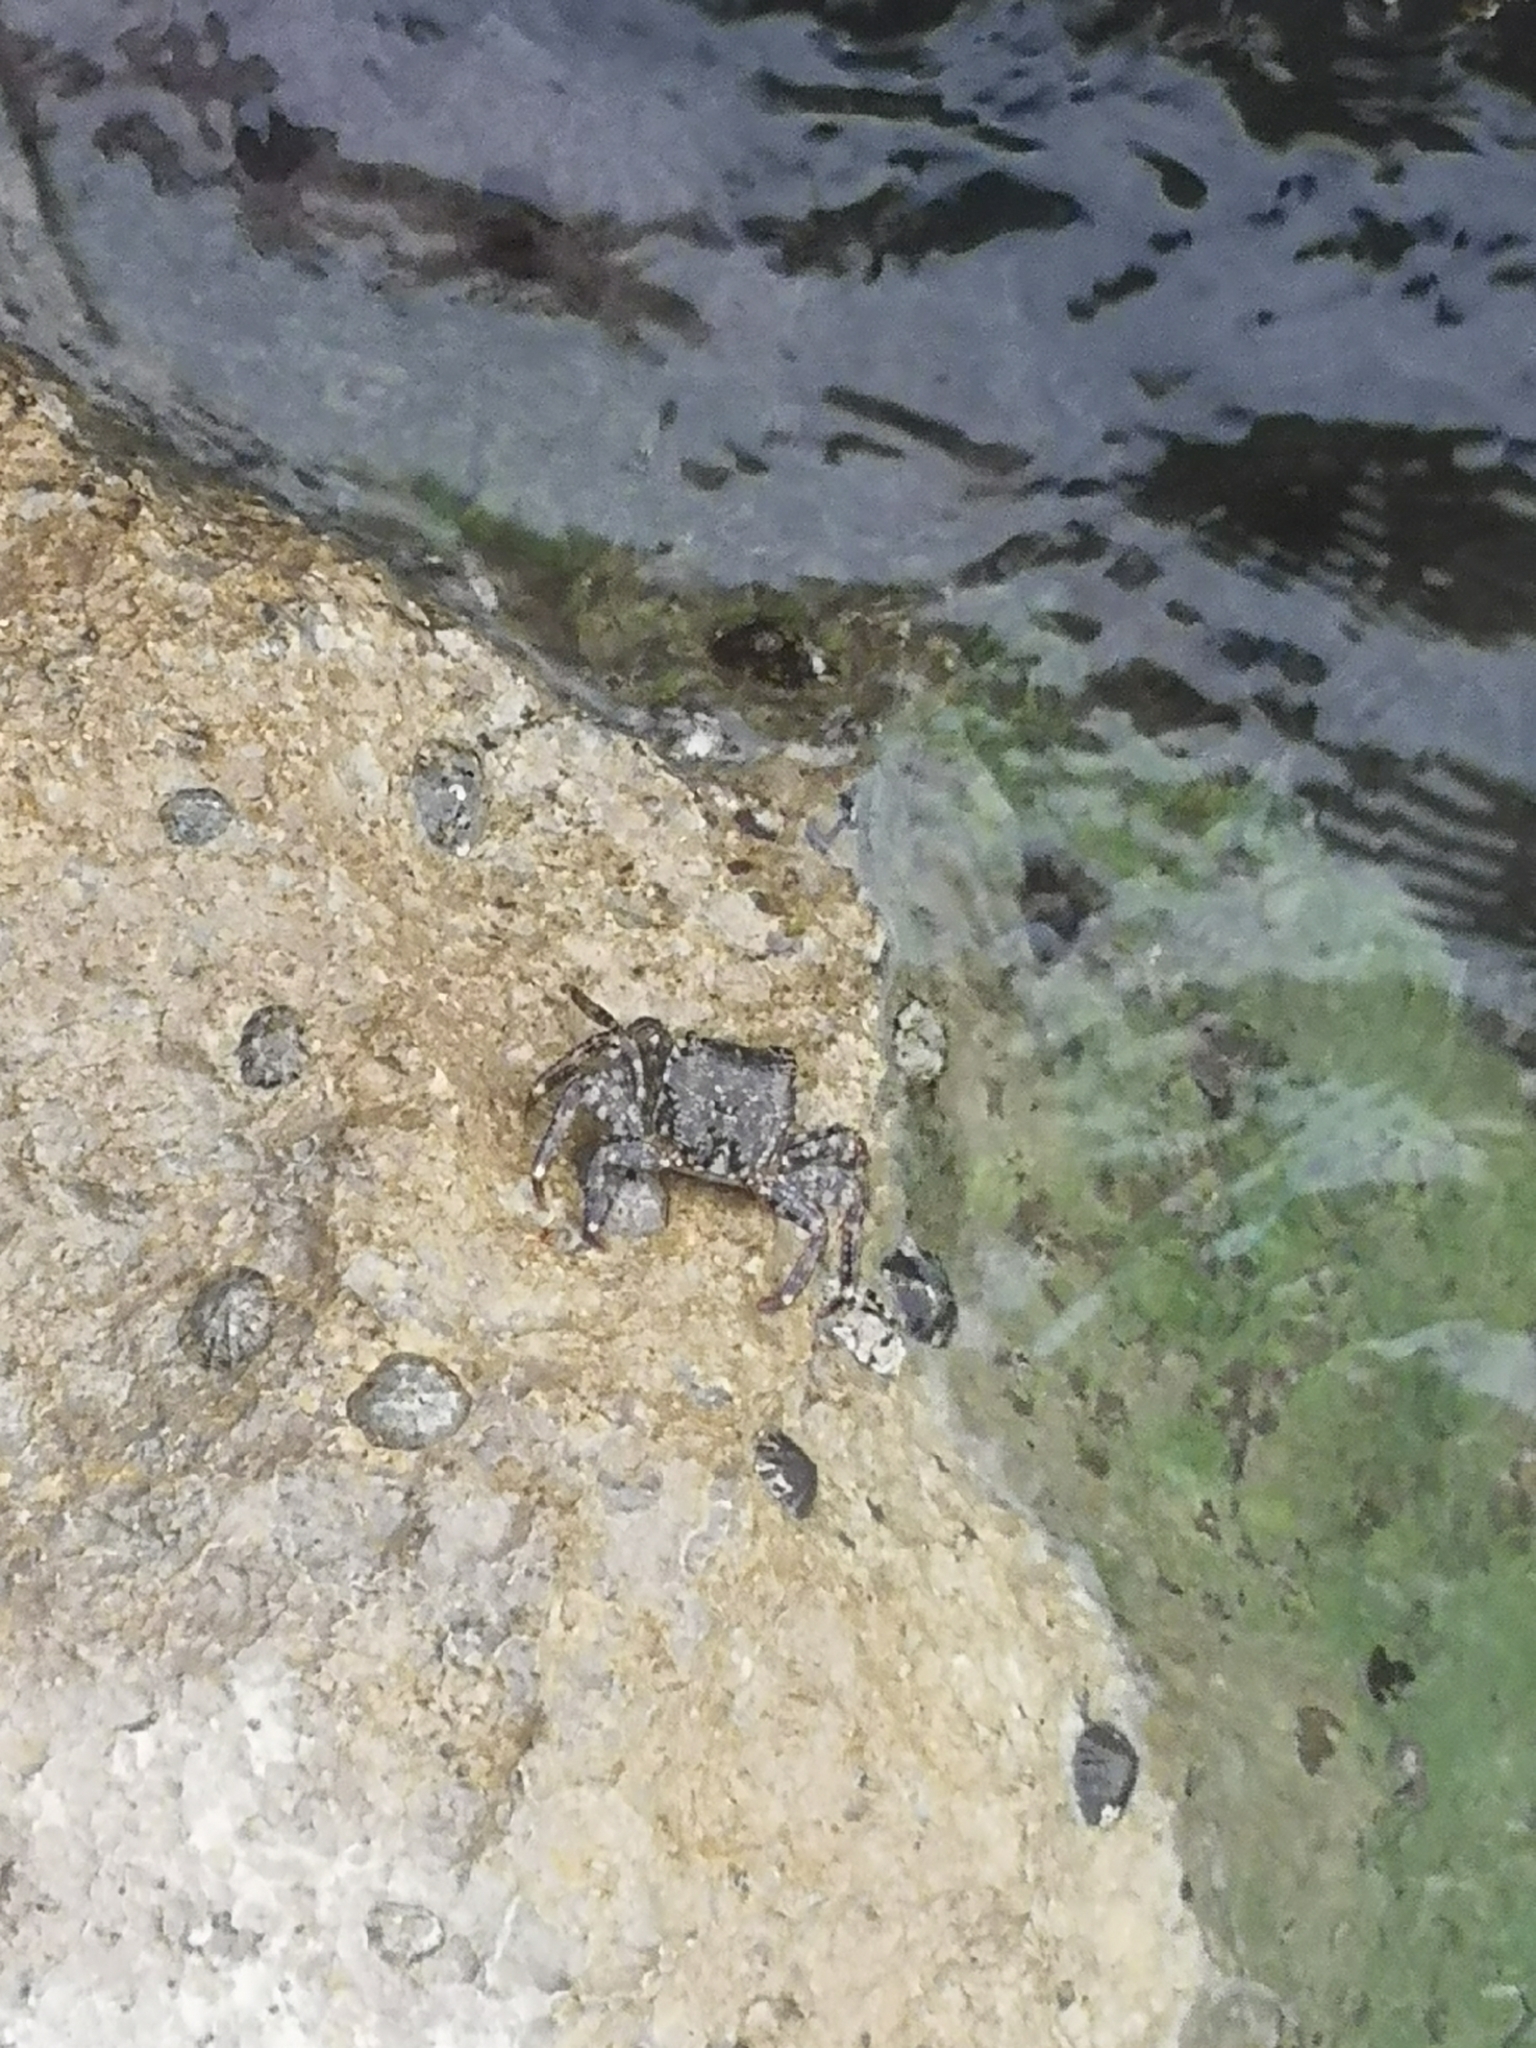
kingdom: Animalia
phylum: Arthropoda
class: Malacostraca
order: Decapoda
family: Grapsidae
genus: Pachygrapsus
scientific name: Pachygrapsus marmoratus
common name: Marbled rock crab
